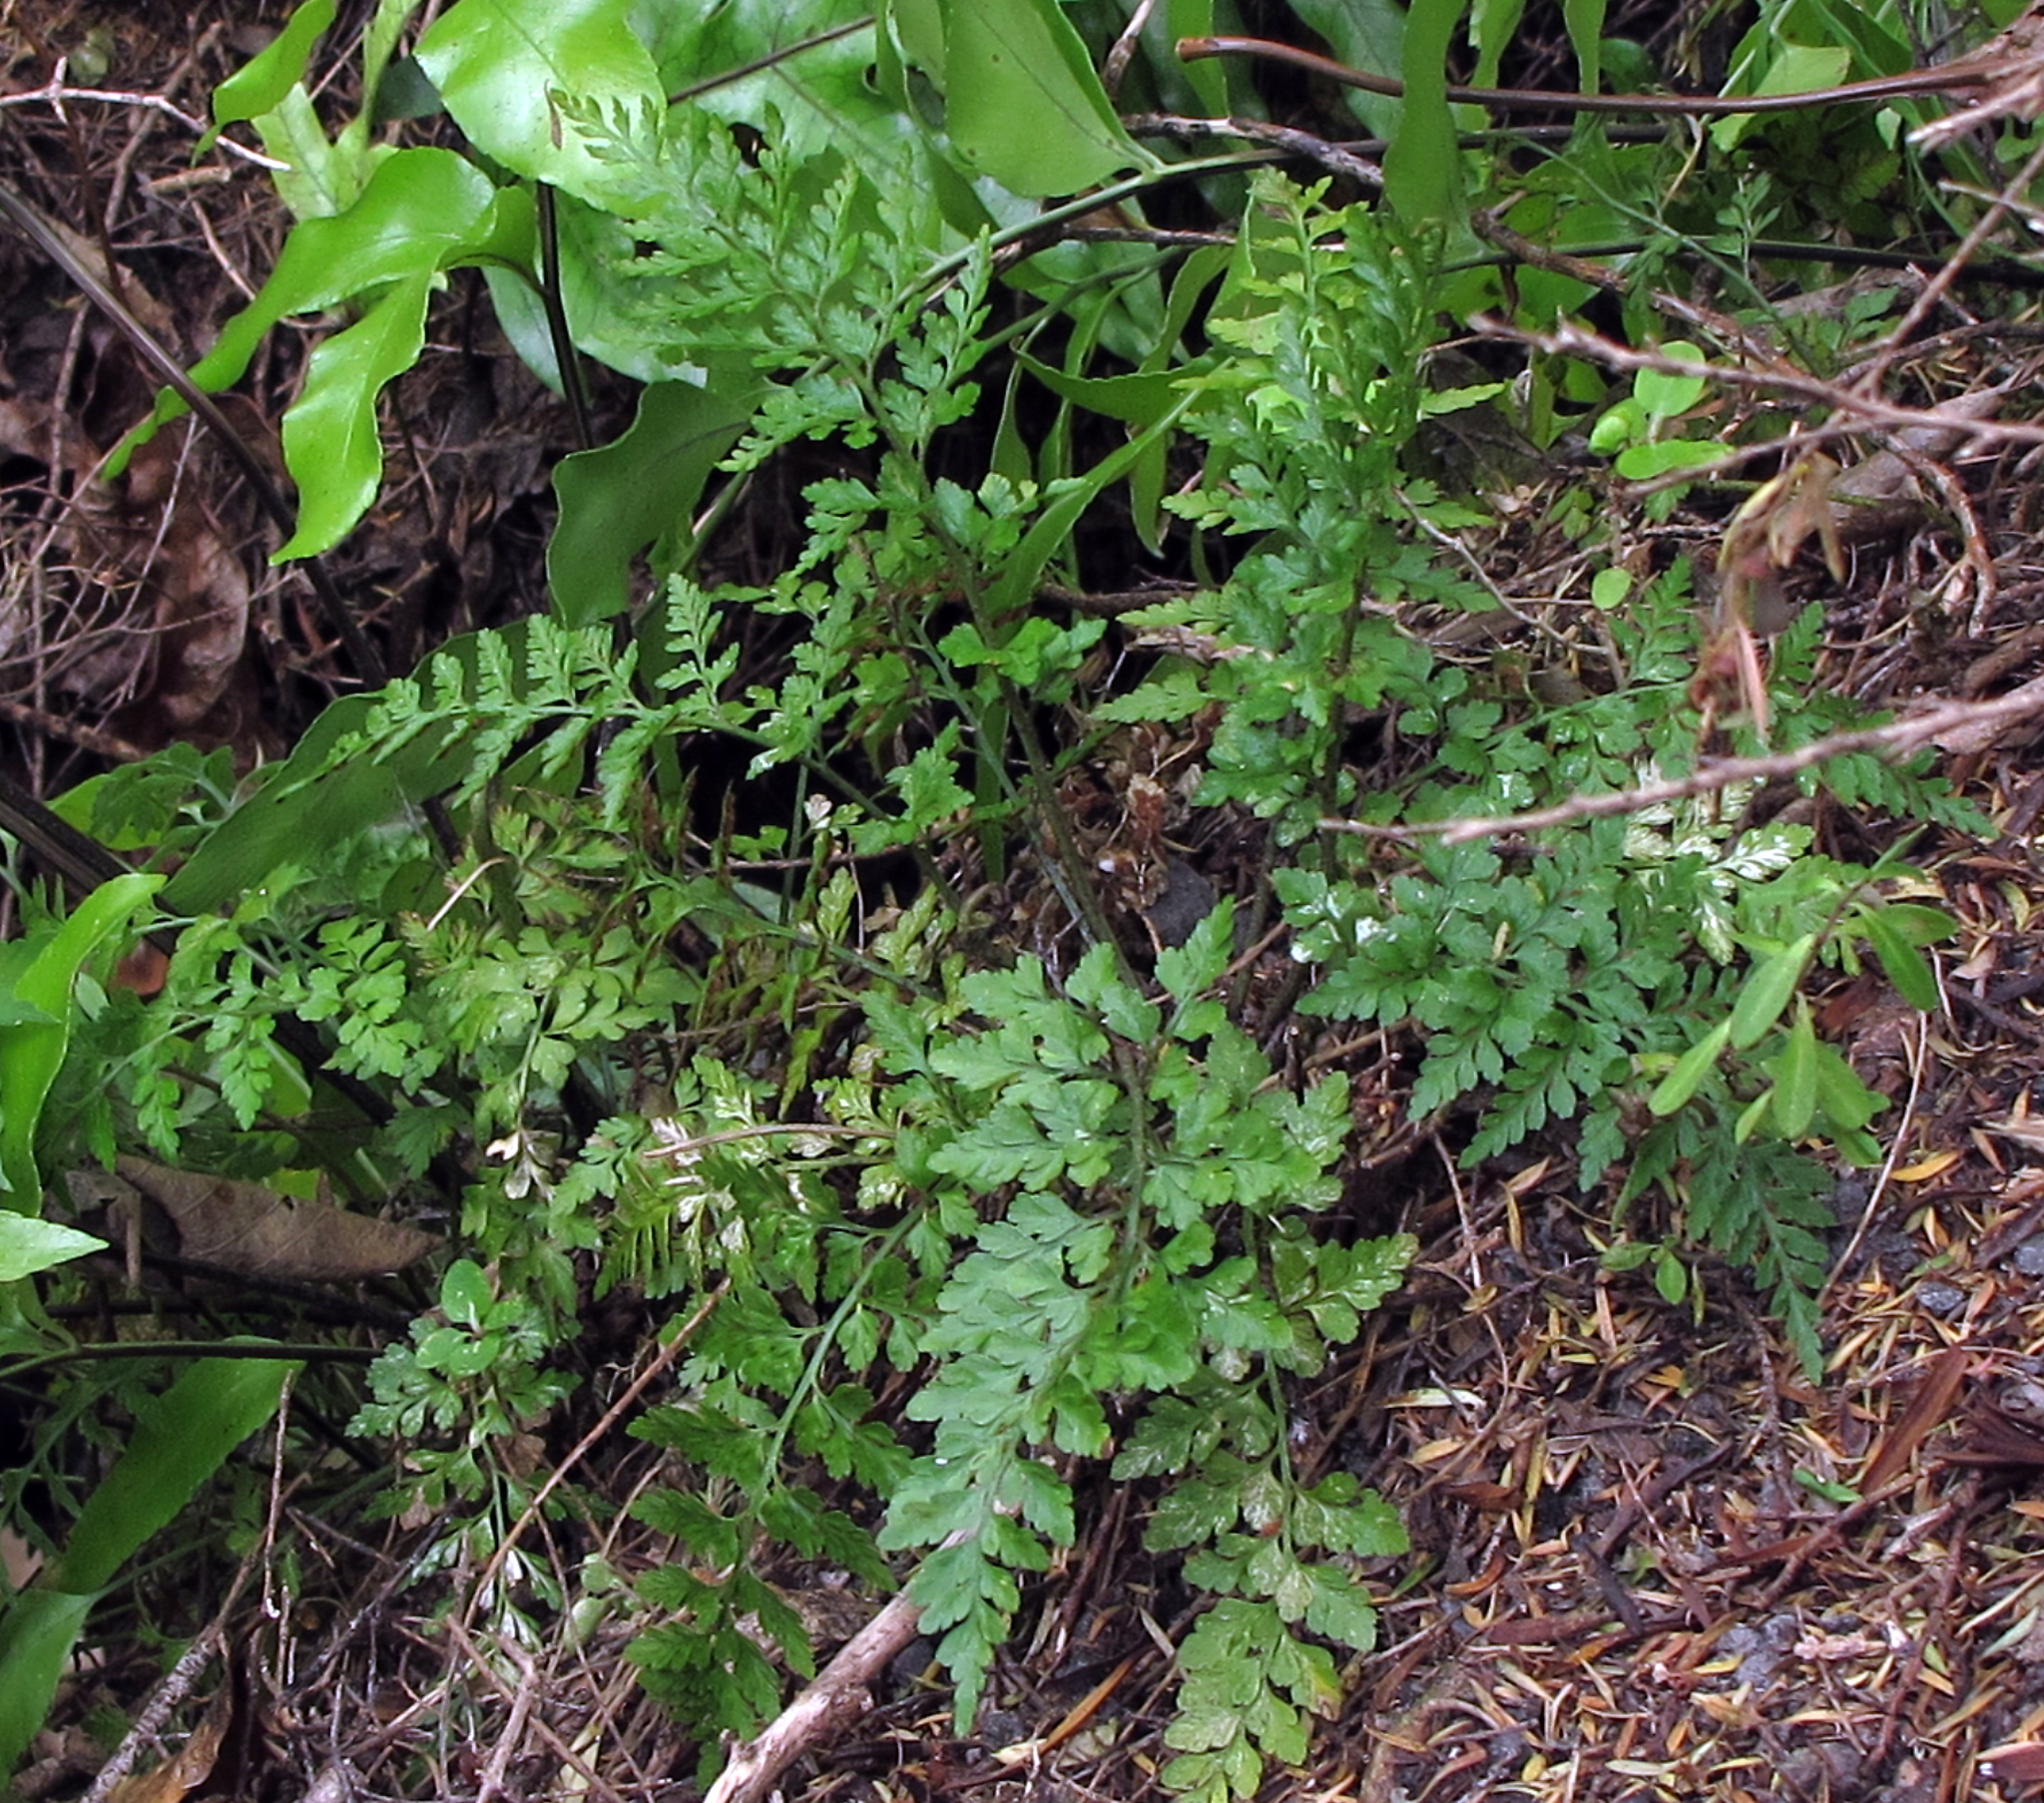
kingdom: Plantae
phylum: Tracheophyta
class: Polypodiopsida
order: Polypodiales
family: Aspleniaceae
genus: Asplenium
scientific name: Asplenium
